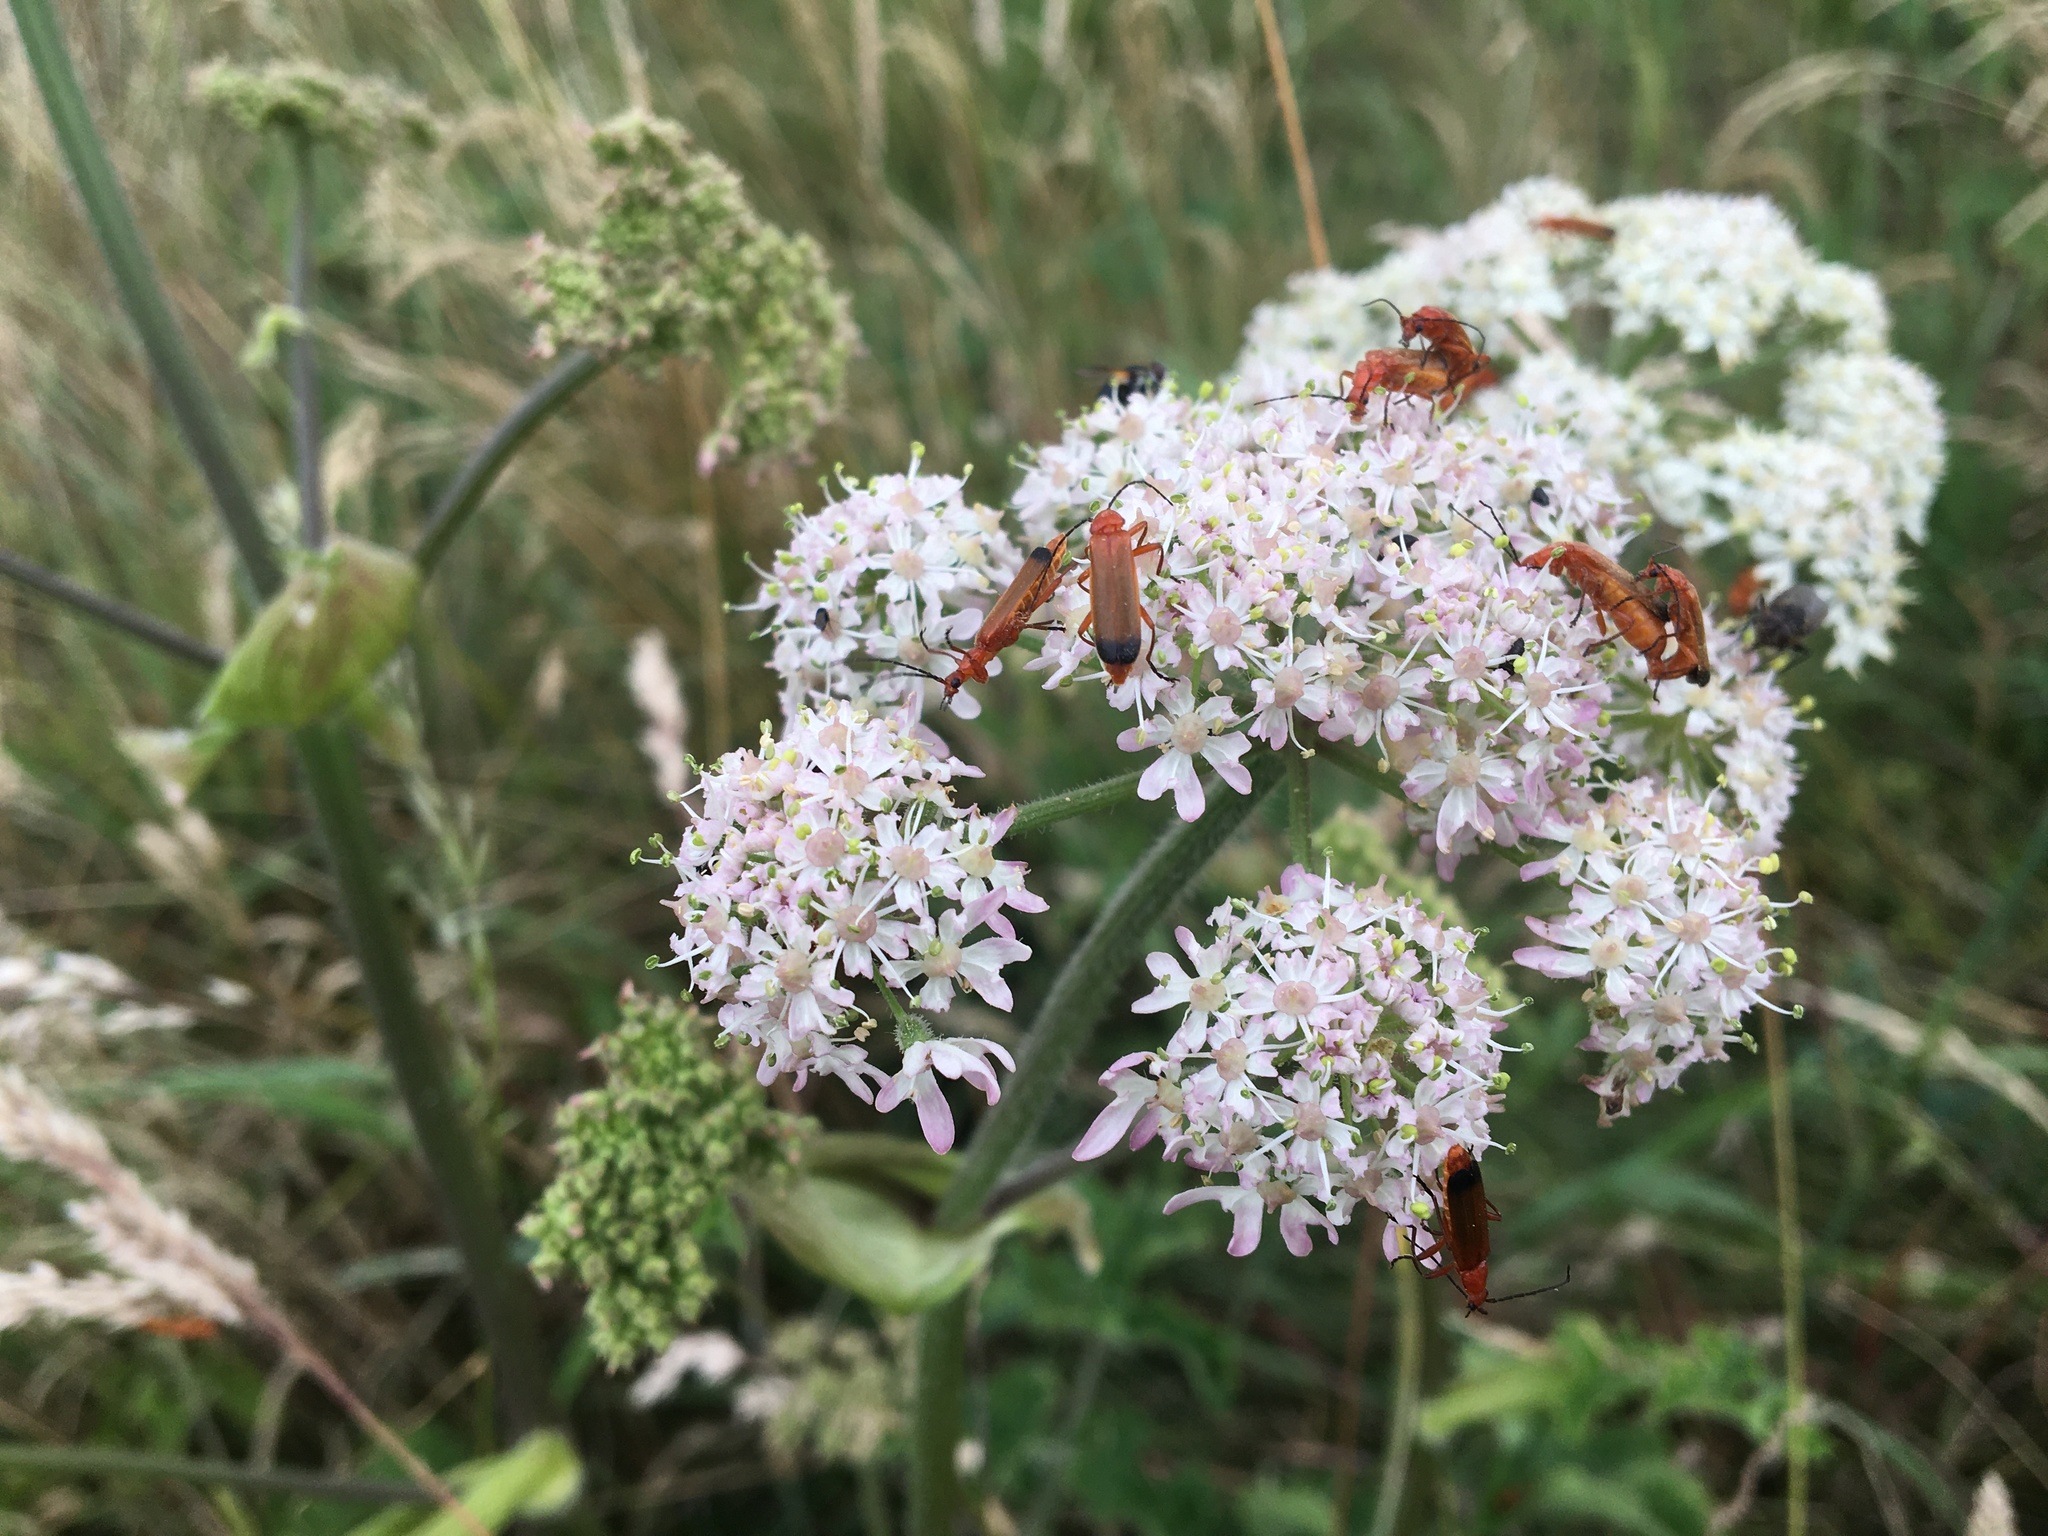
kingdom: Animalia
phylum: Arthropoda
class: Insecta
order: Coleoptera
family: Cantharidae
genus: Rhagonycha
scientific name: Rhagonycha fulva
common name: Common red soldier beetle
